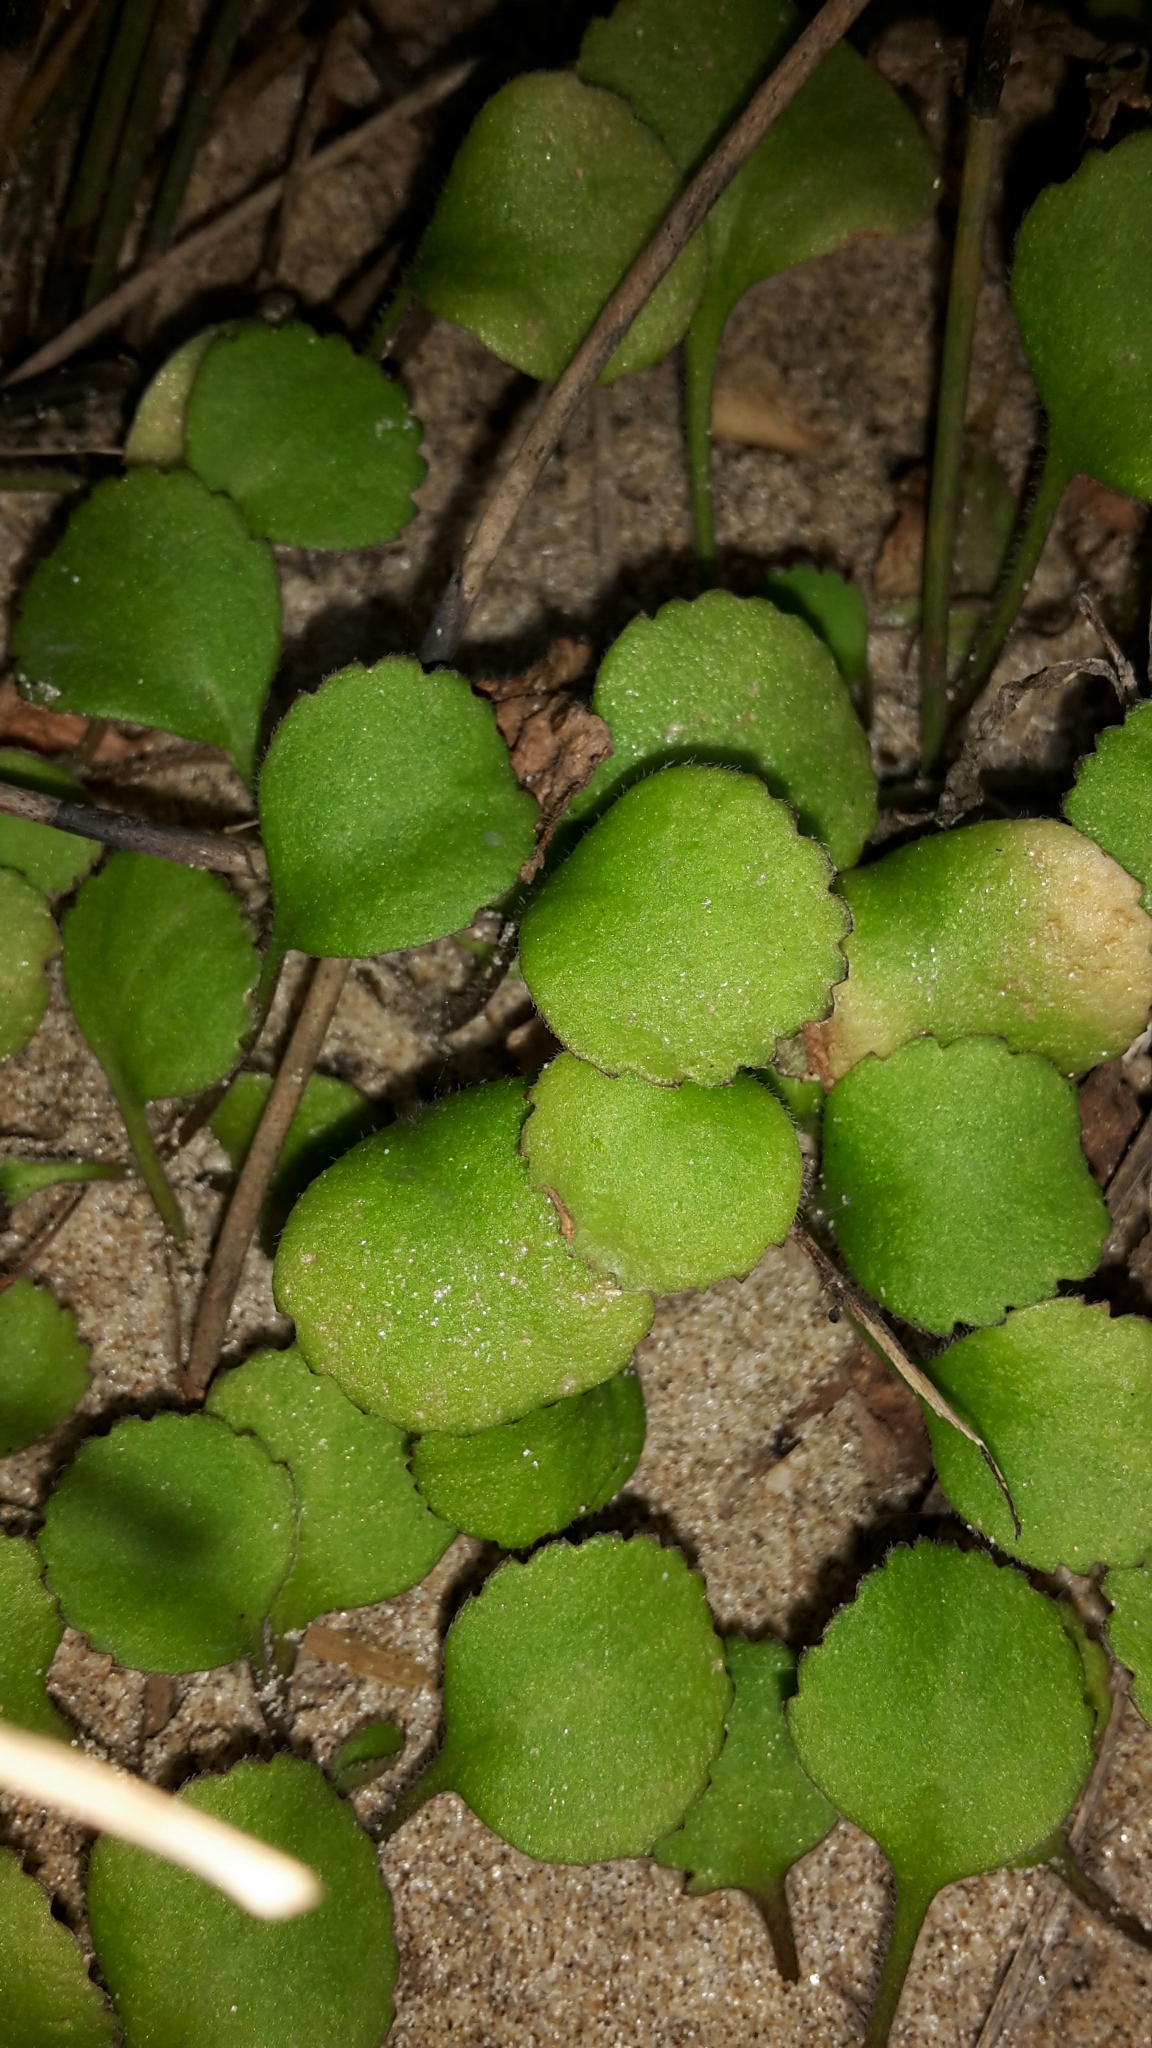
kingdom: Plantae
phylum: Tracheophyta
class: Magnoliopsida
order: Asterales
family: Asteraceae
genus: Leptinella
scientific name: Leptinella rotundata
